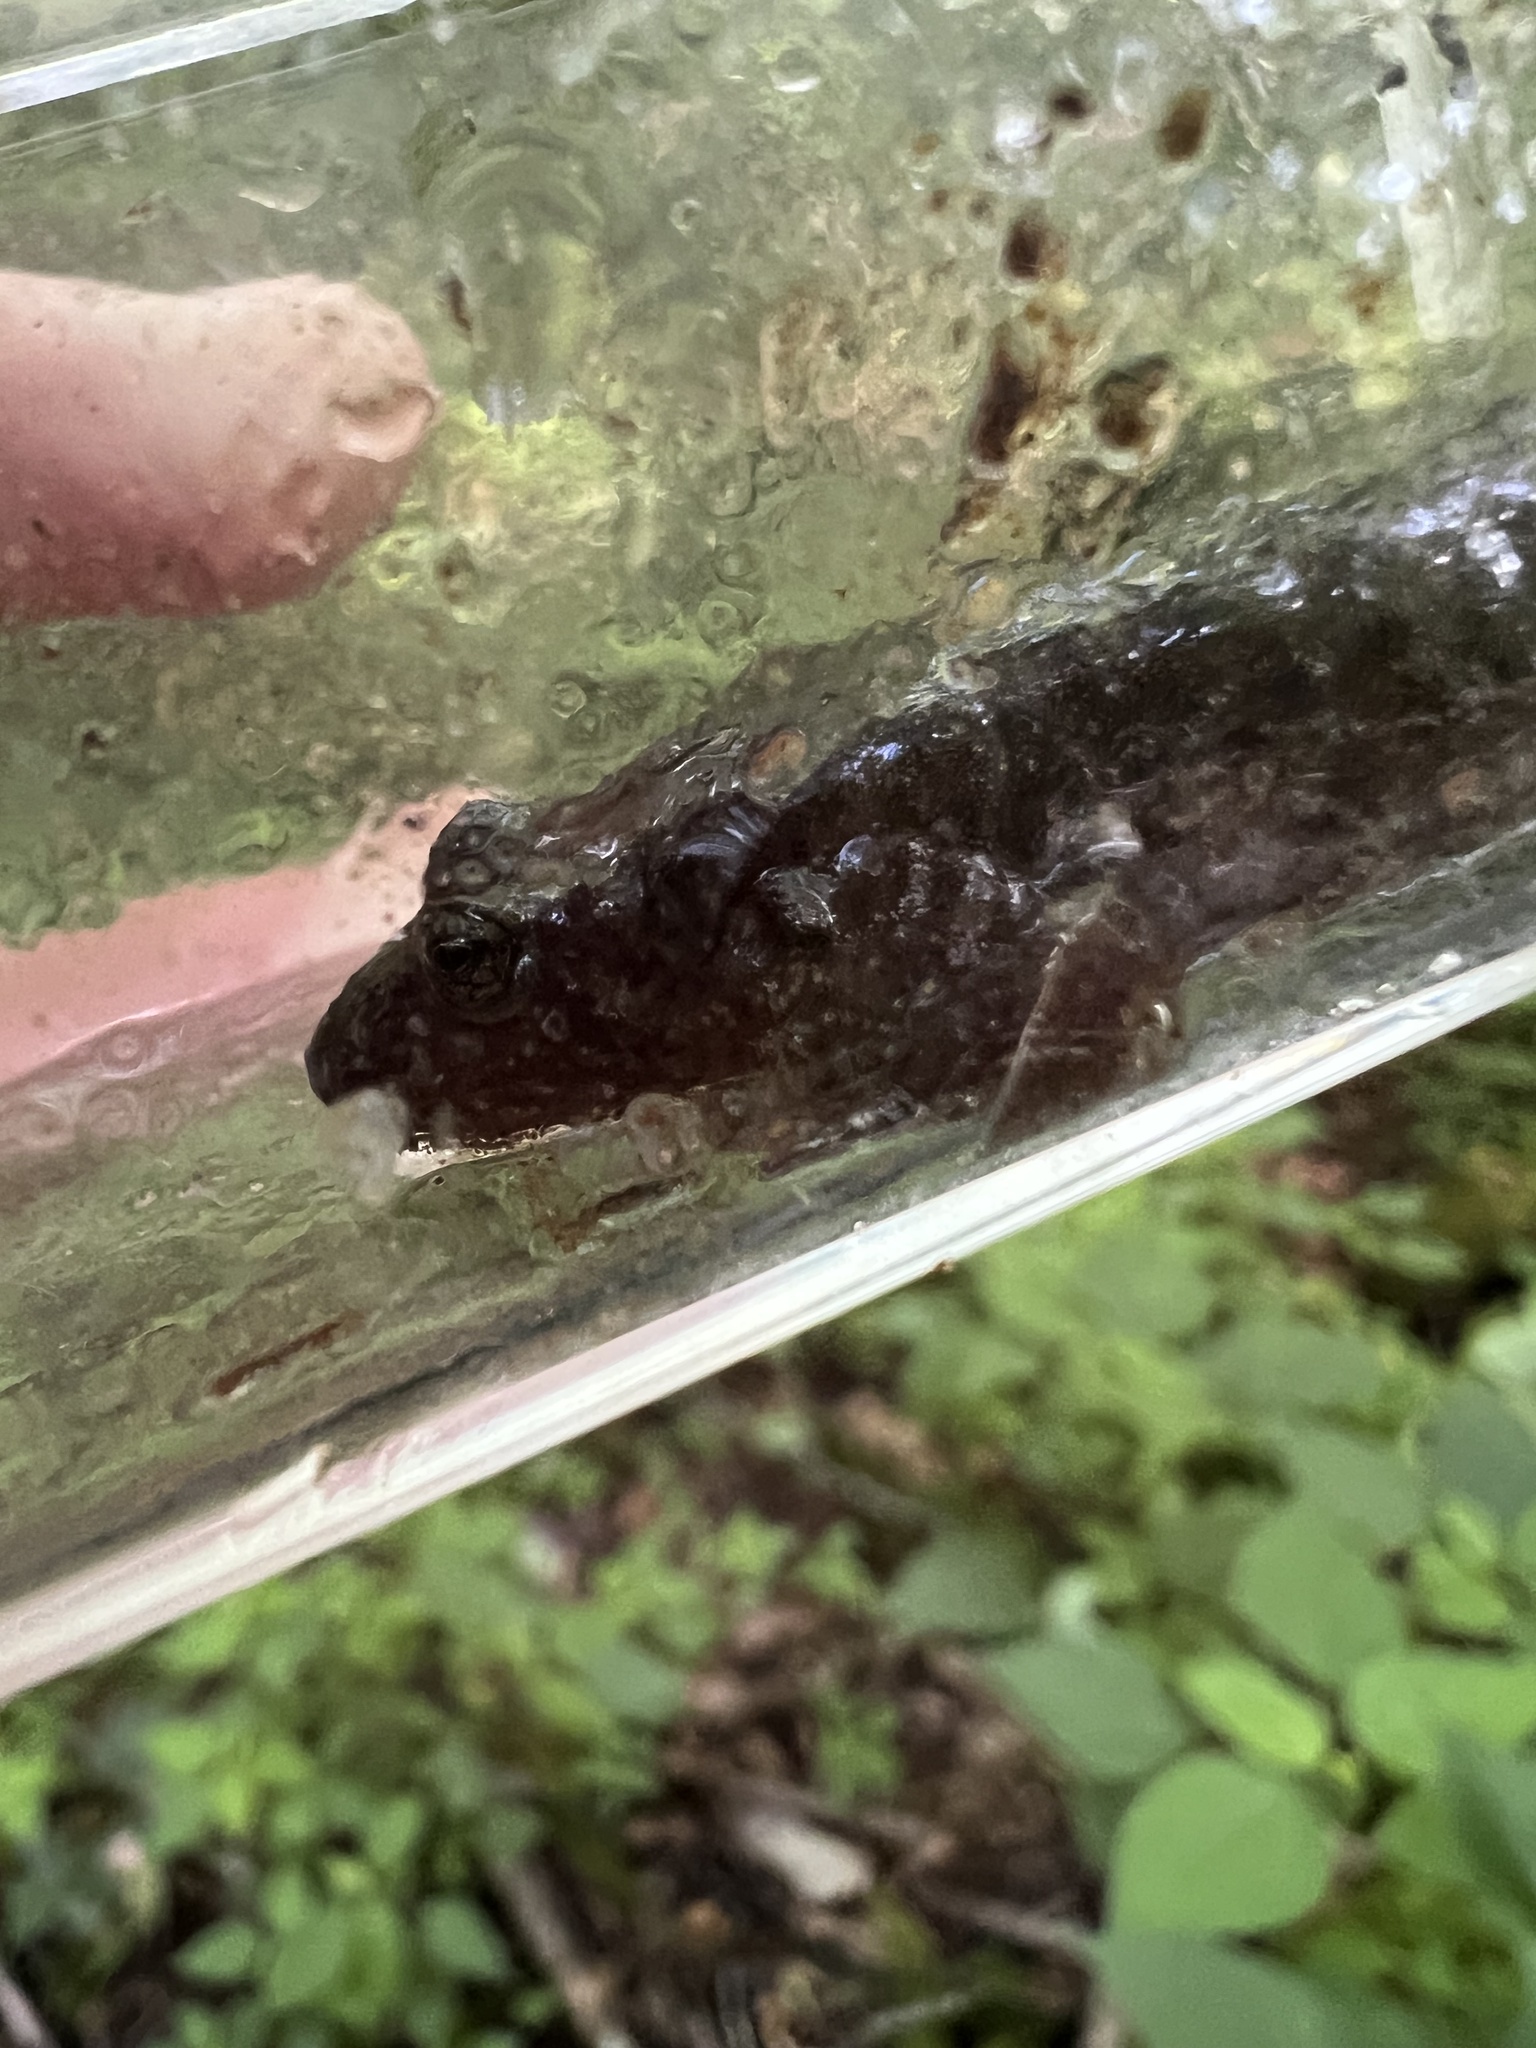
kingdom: Animalia
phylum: Chordata
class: Amphibia
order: Caudata
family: Plethodontidae
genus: Desmognathus
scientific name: Desmognathus monticola
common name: Seal salamander
